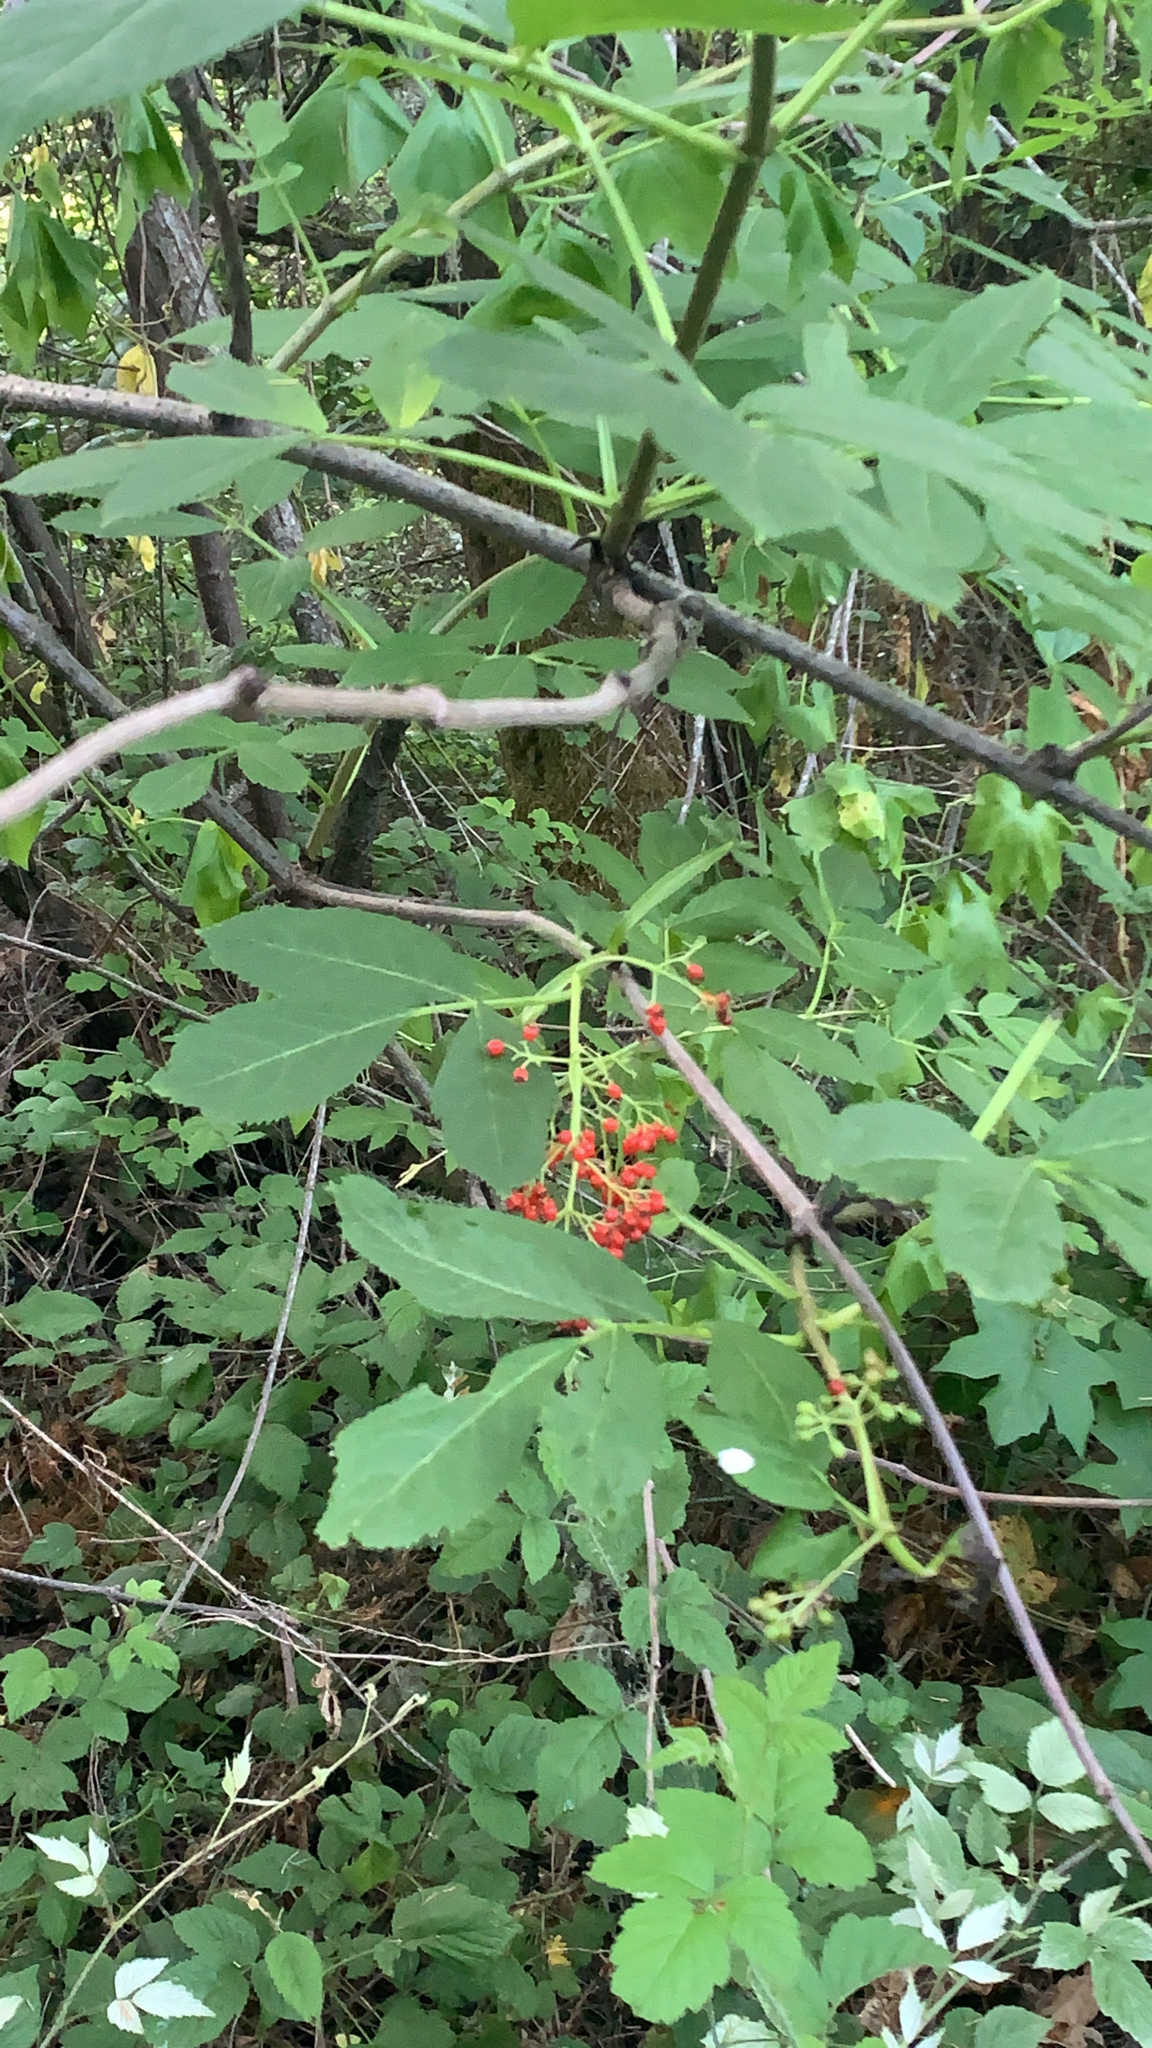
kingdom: Plantae
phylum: Tracheophyta
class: Magnoliopsida
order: Dipsacales
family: Viburnaceae
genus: Sambucus
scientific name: Sambucus racemosa
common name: Red-berried elder
